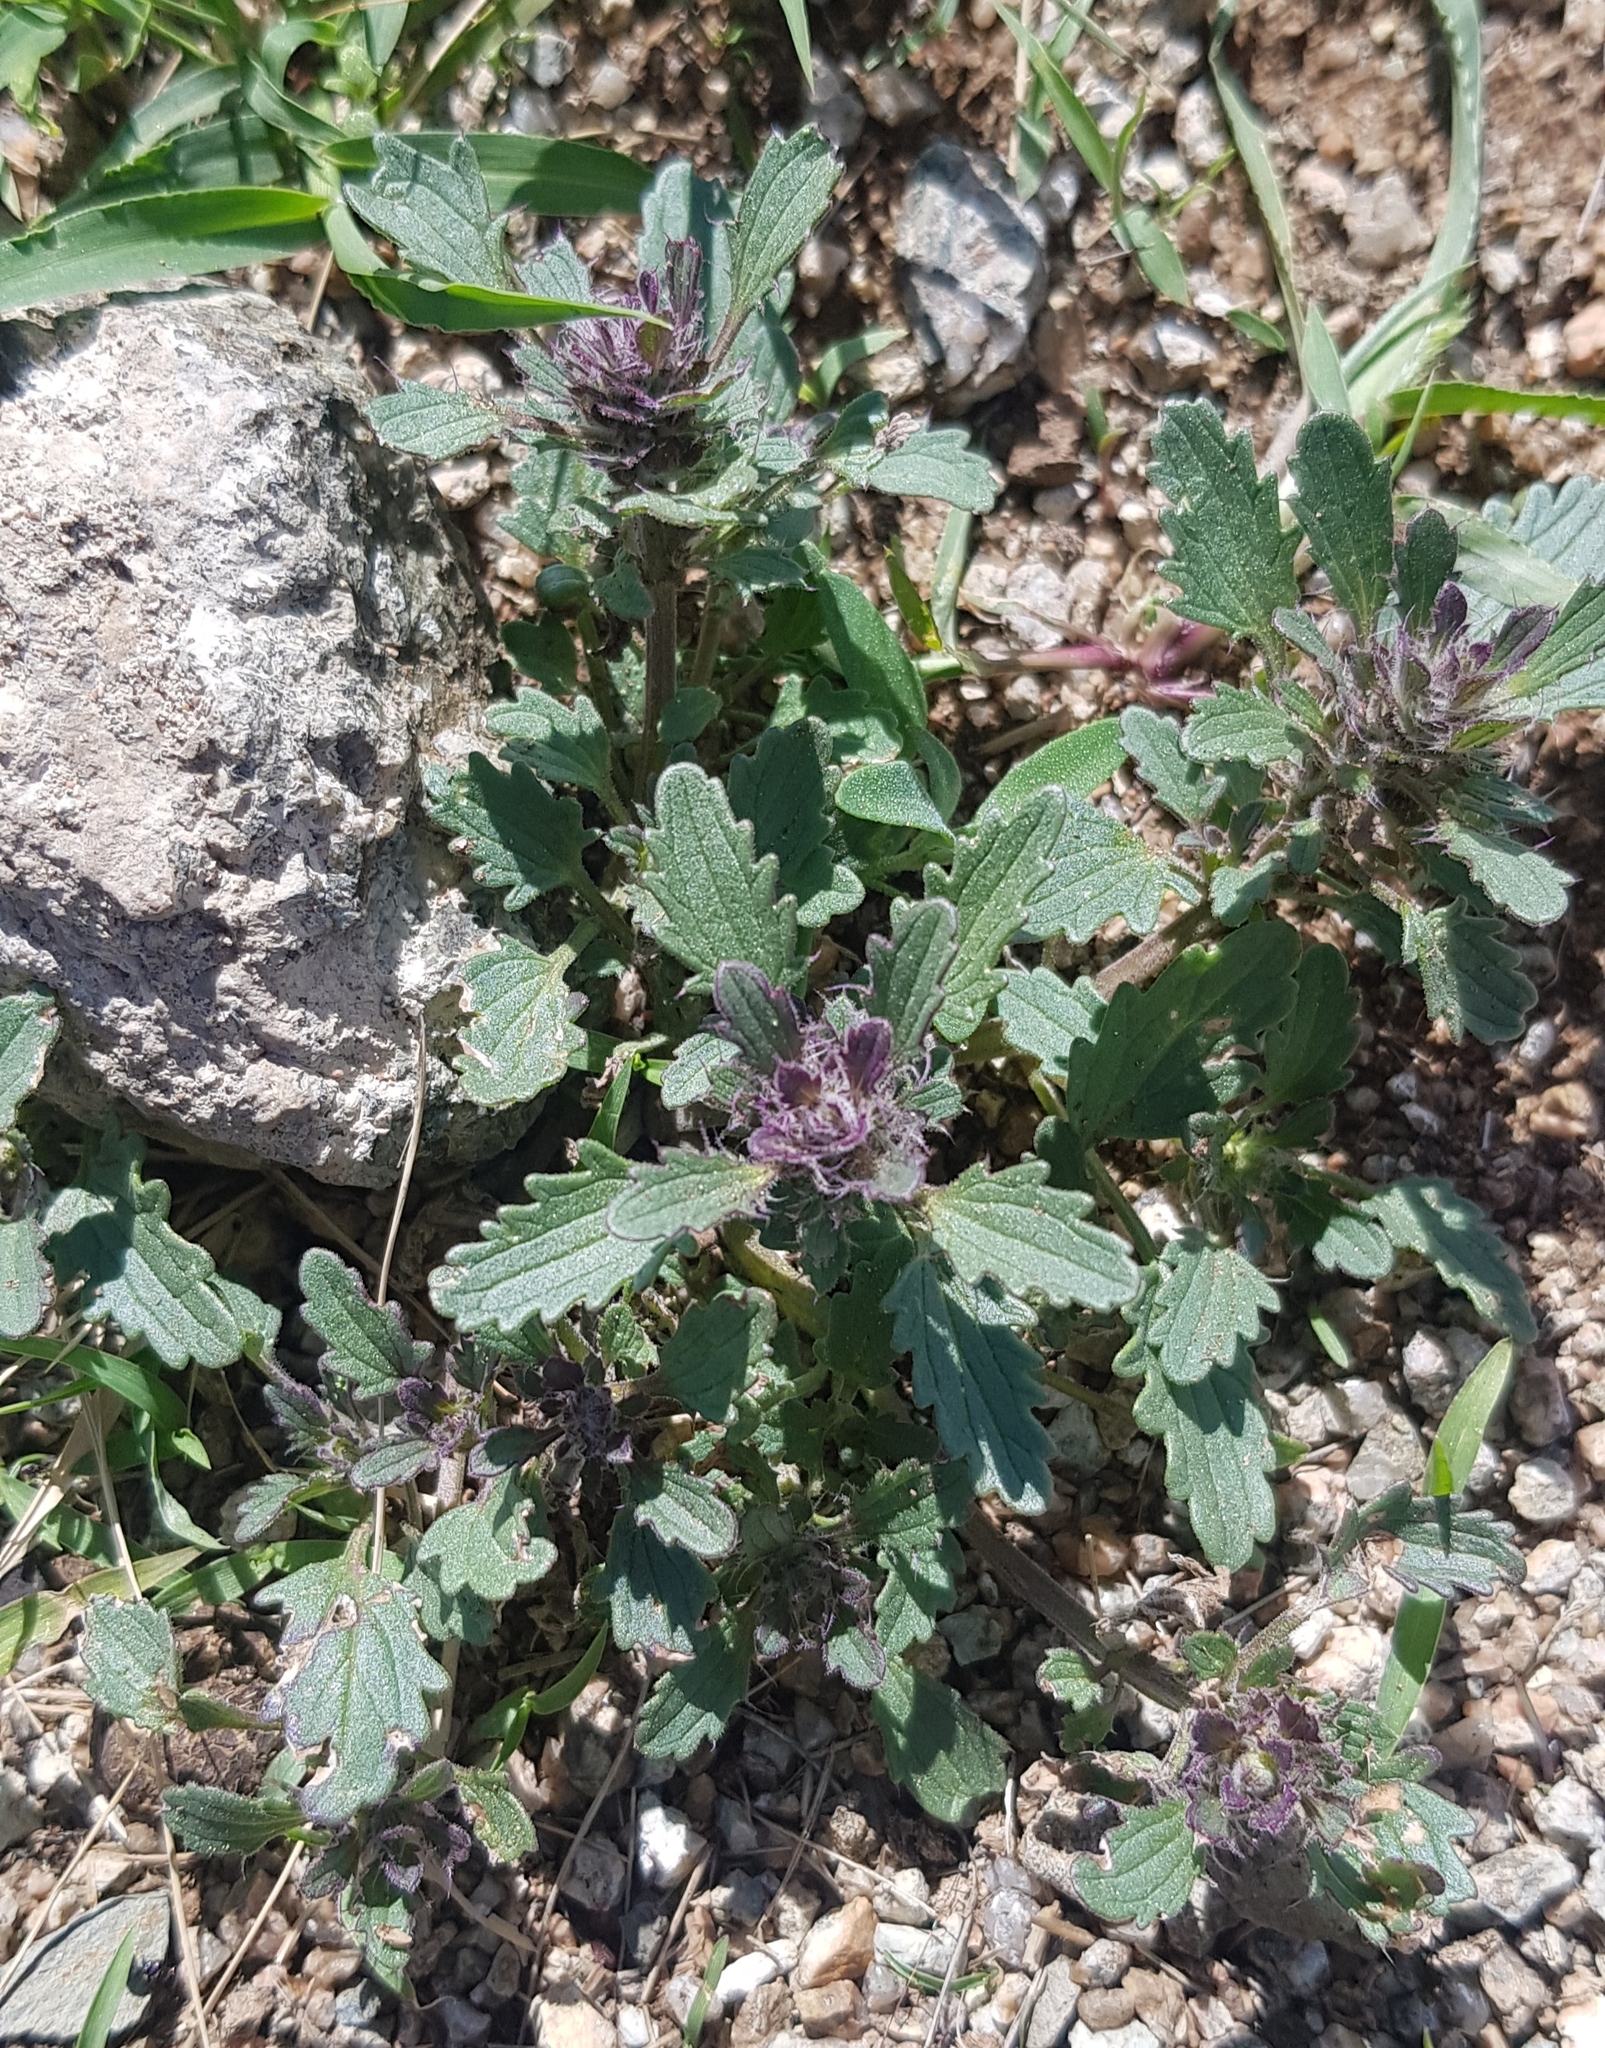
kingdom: Plantae
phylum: Tracheophyta
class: Magnoliopsida
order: Lamiales
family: Lamiaceae
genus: Dracocephalum
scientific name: Dracocephalum foetidum
